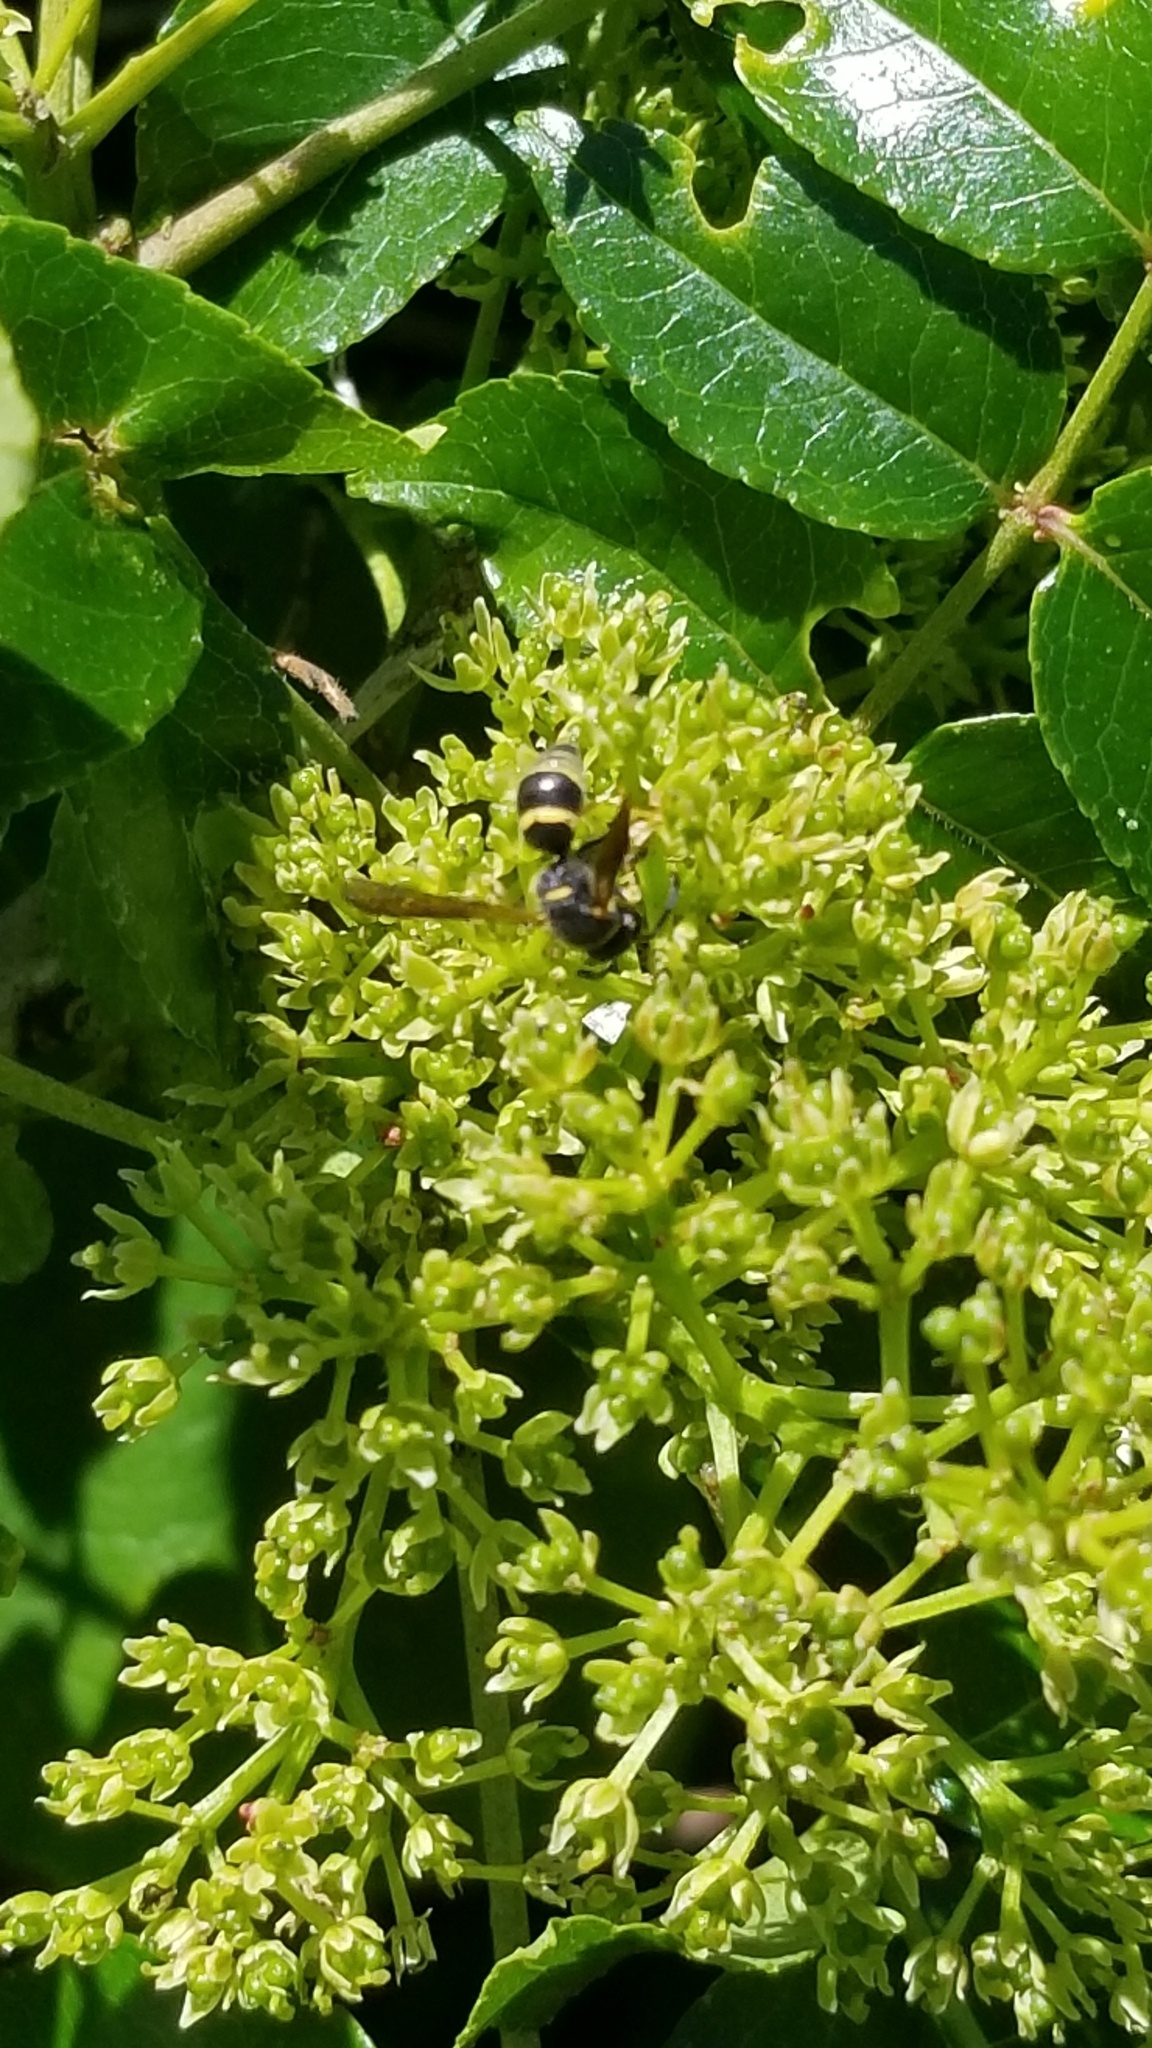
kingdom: Animalia
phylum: Arthropoda
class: Insecta
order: Hymenoptera
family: Eumenidae
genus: Euodynerus
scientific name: Euodynerus foraminatus
